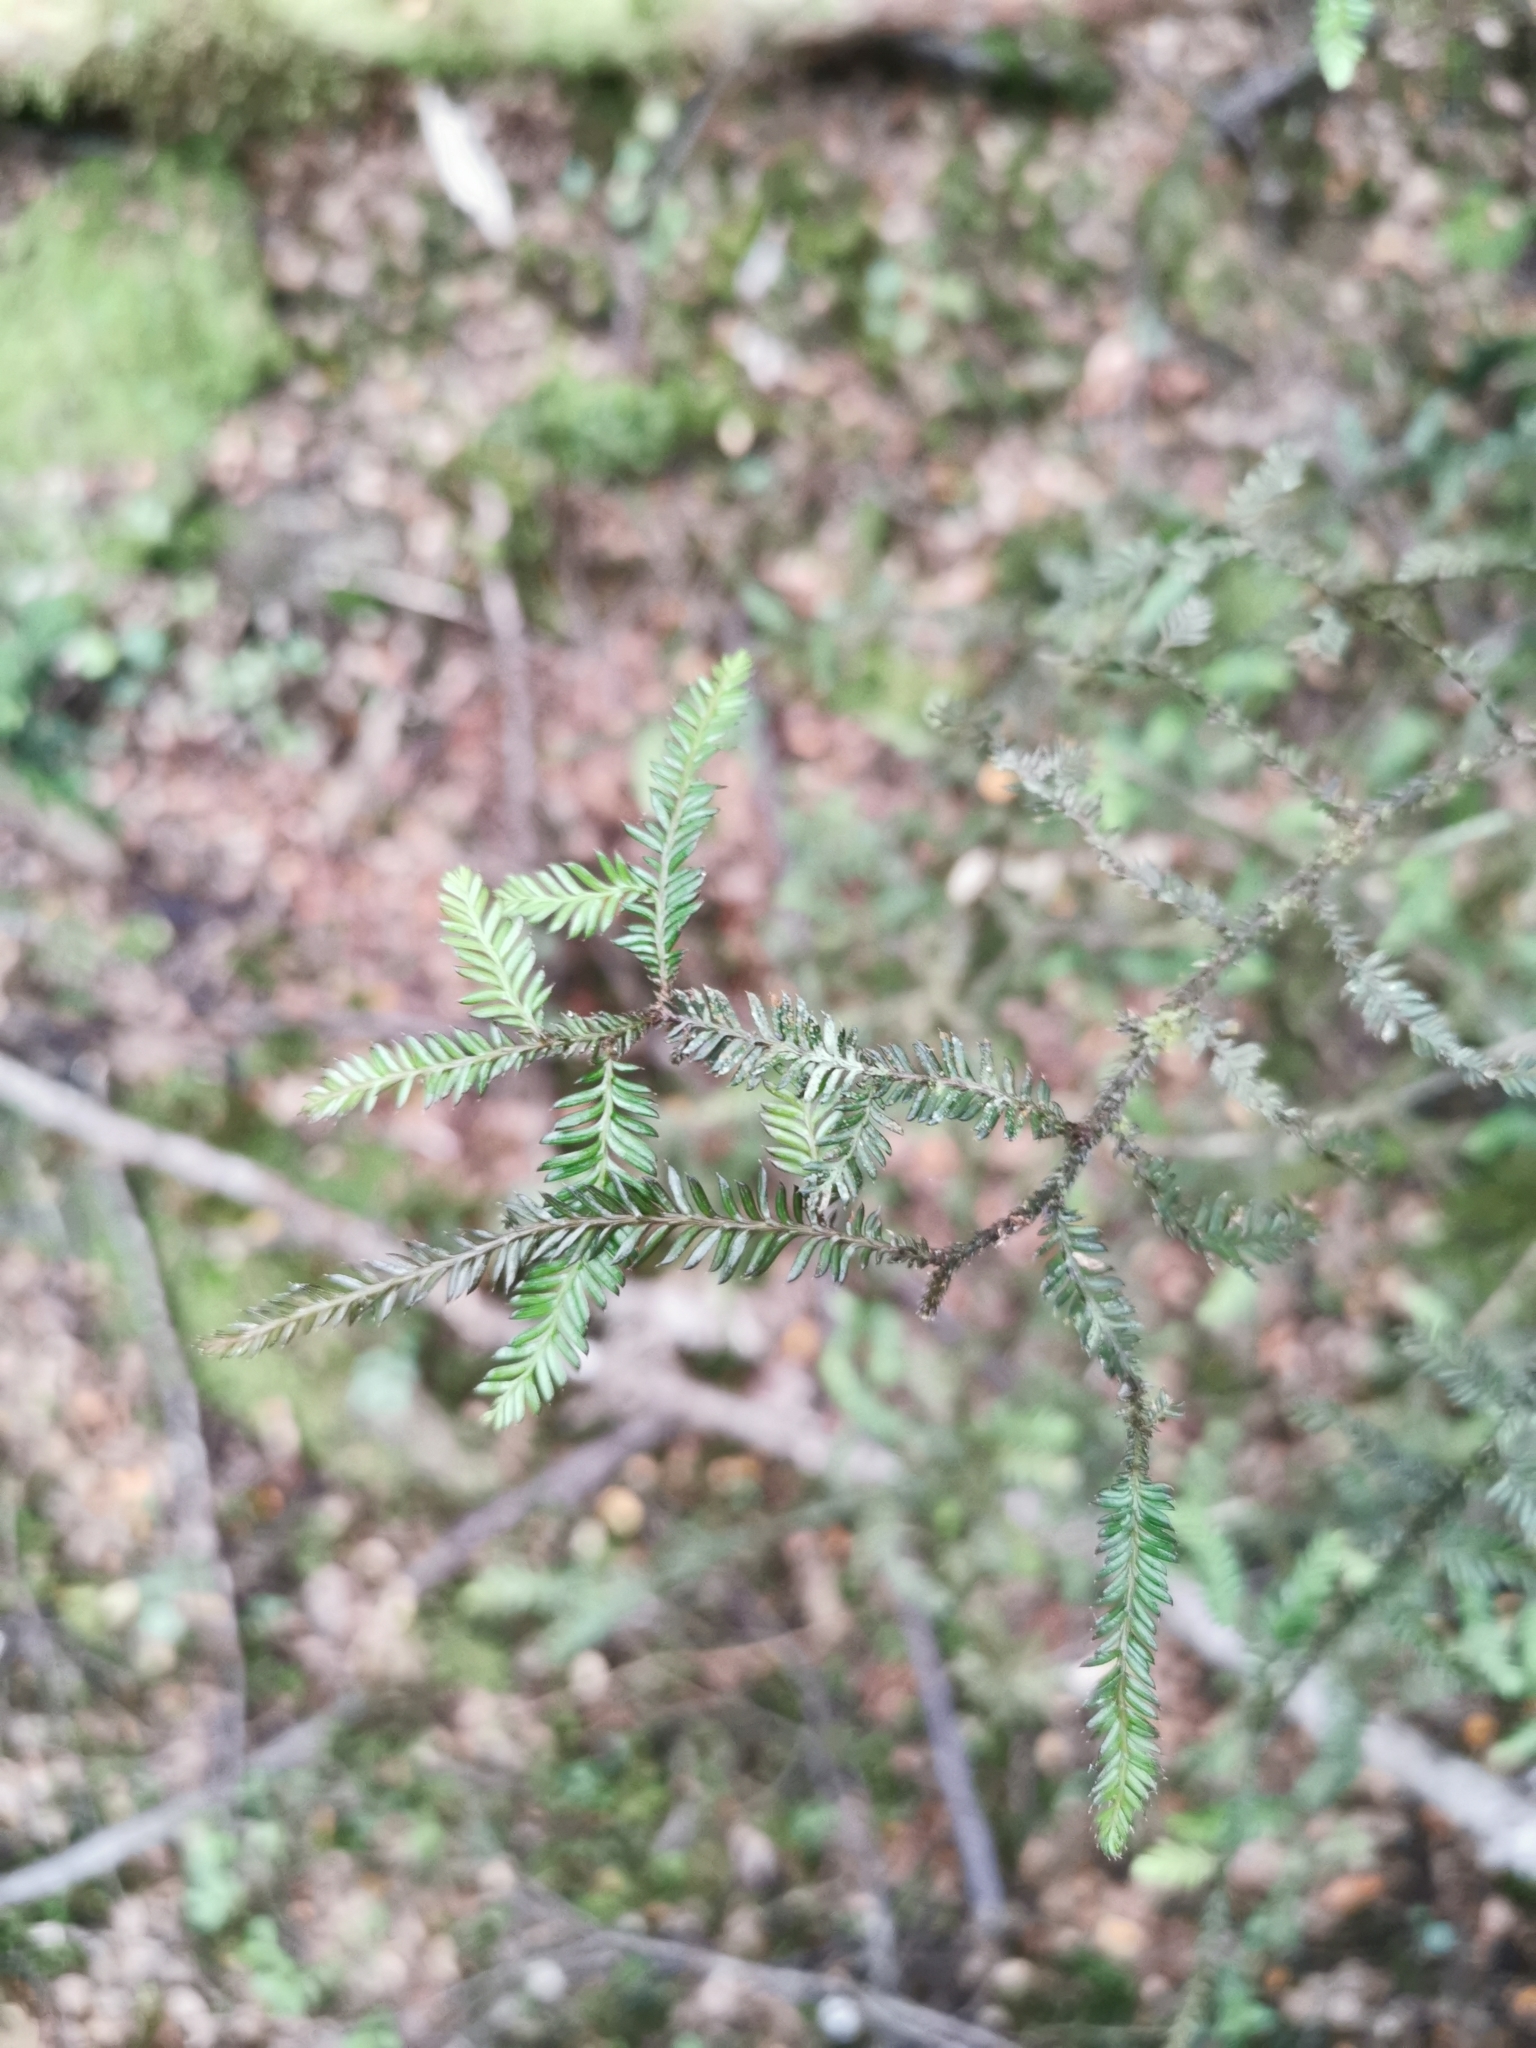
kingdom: Plantae
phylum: Tracheophyta
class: Pinopsida
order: Pinales
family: Podocarpaceae
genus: Dacrycarpus
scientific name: Dacrycarpus dacrydioides
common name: White pine
